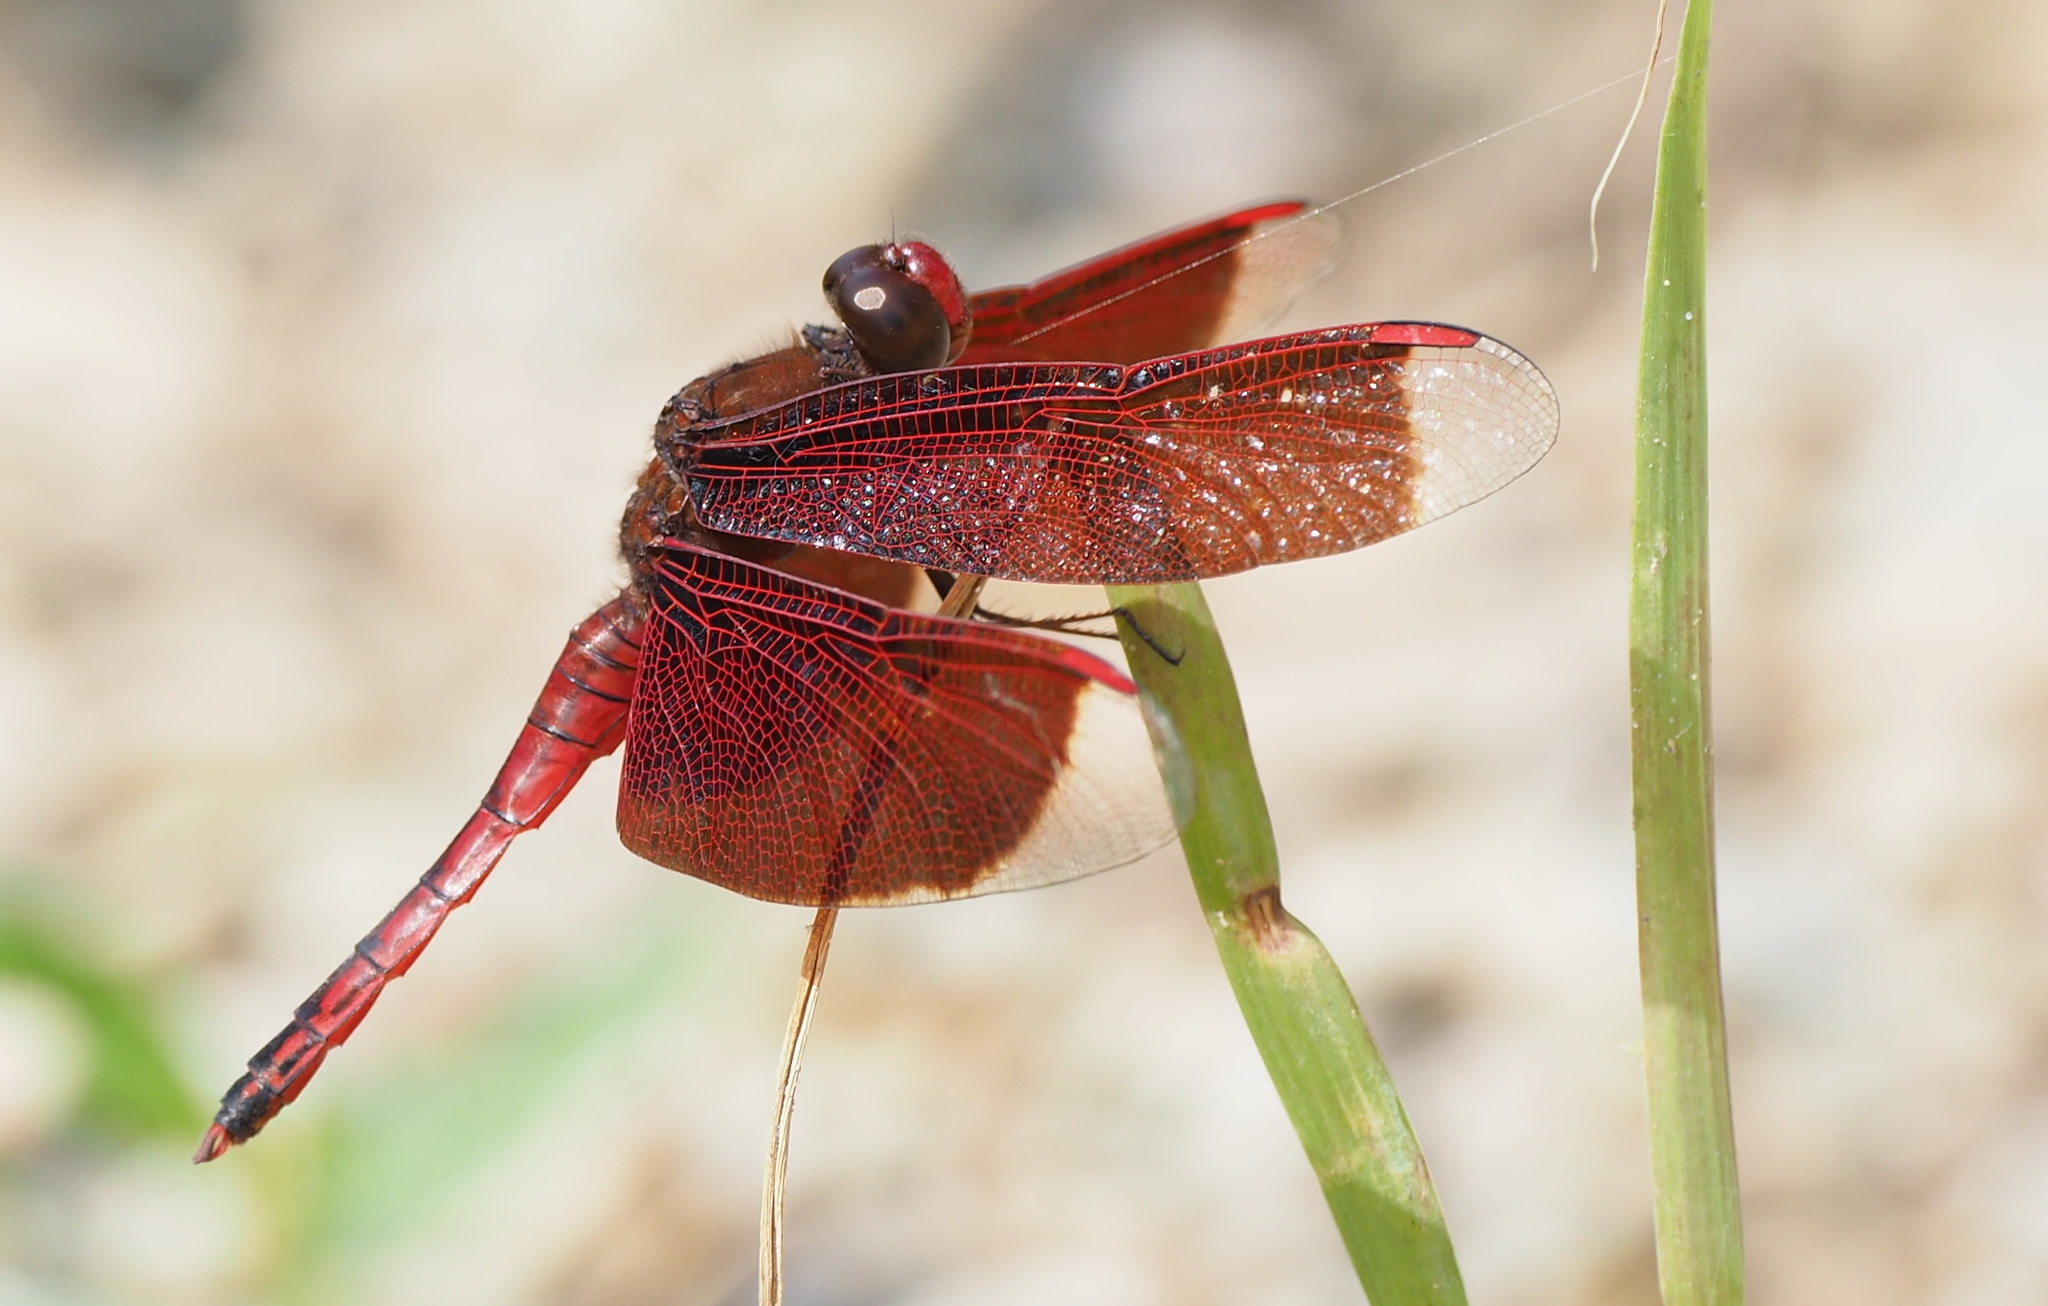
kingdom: Animalia
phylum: Arthropoda
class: Insecta
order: Odonata
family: Libellulidae
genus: Neurothemis
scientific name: Neurothemis taiwanensis
